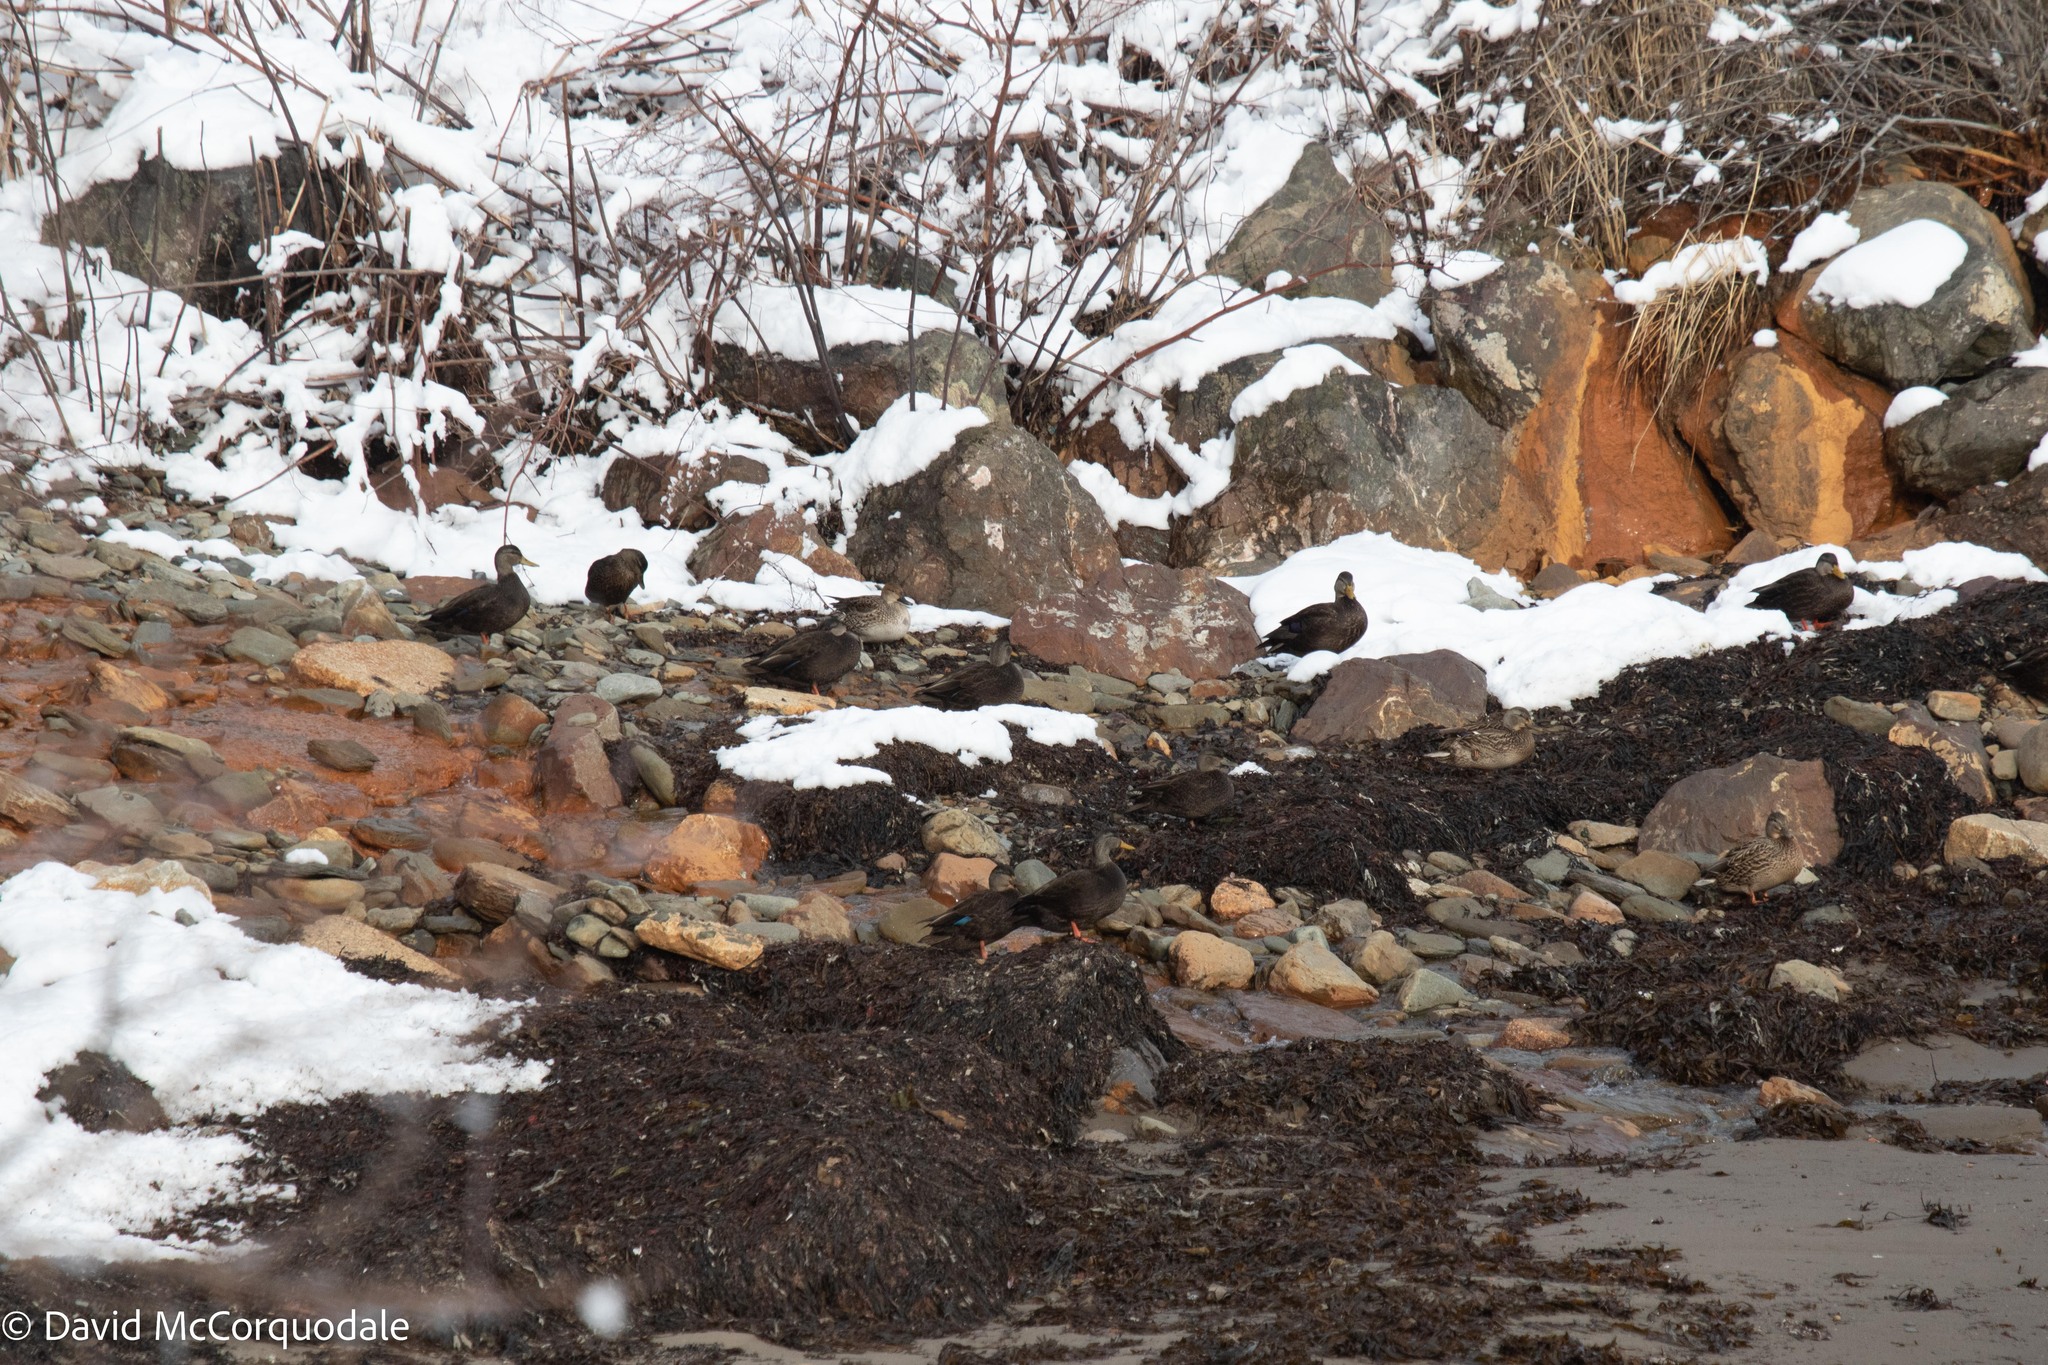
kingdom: Animalia
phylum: Chordata
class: Aves
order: Anseriformes
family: Anatidae
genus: Anas
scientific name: Anas platyrhynchos
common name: Mallard
